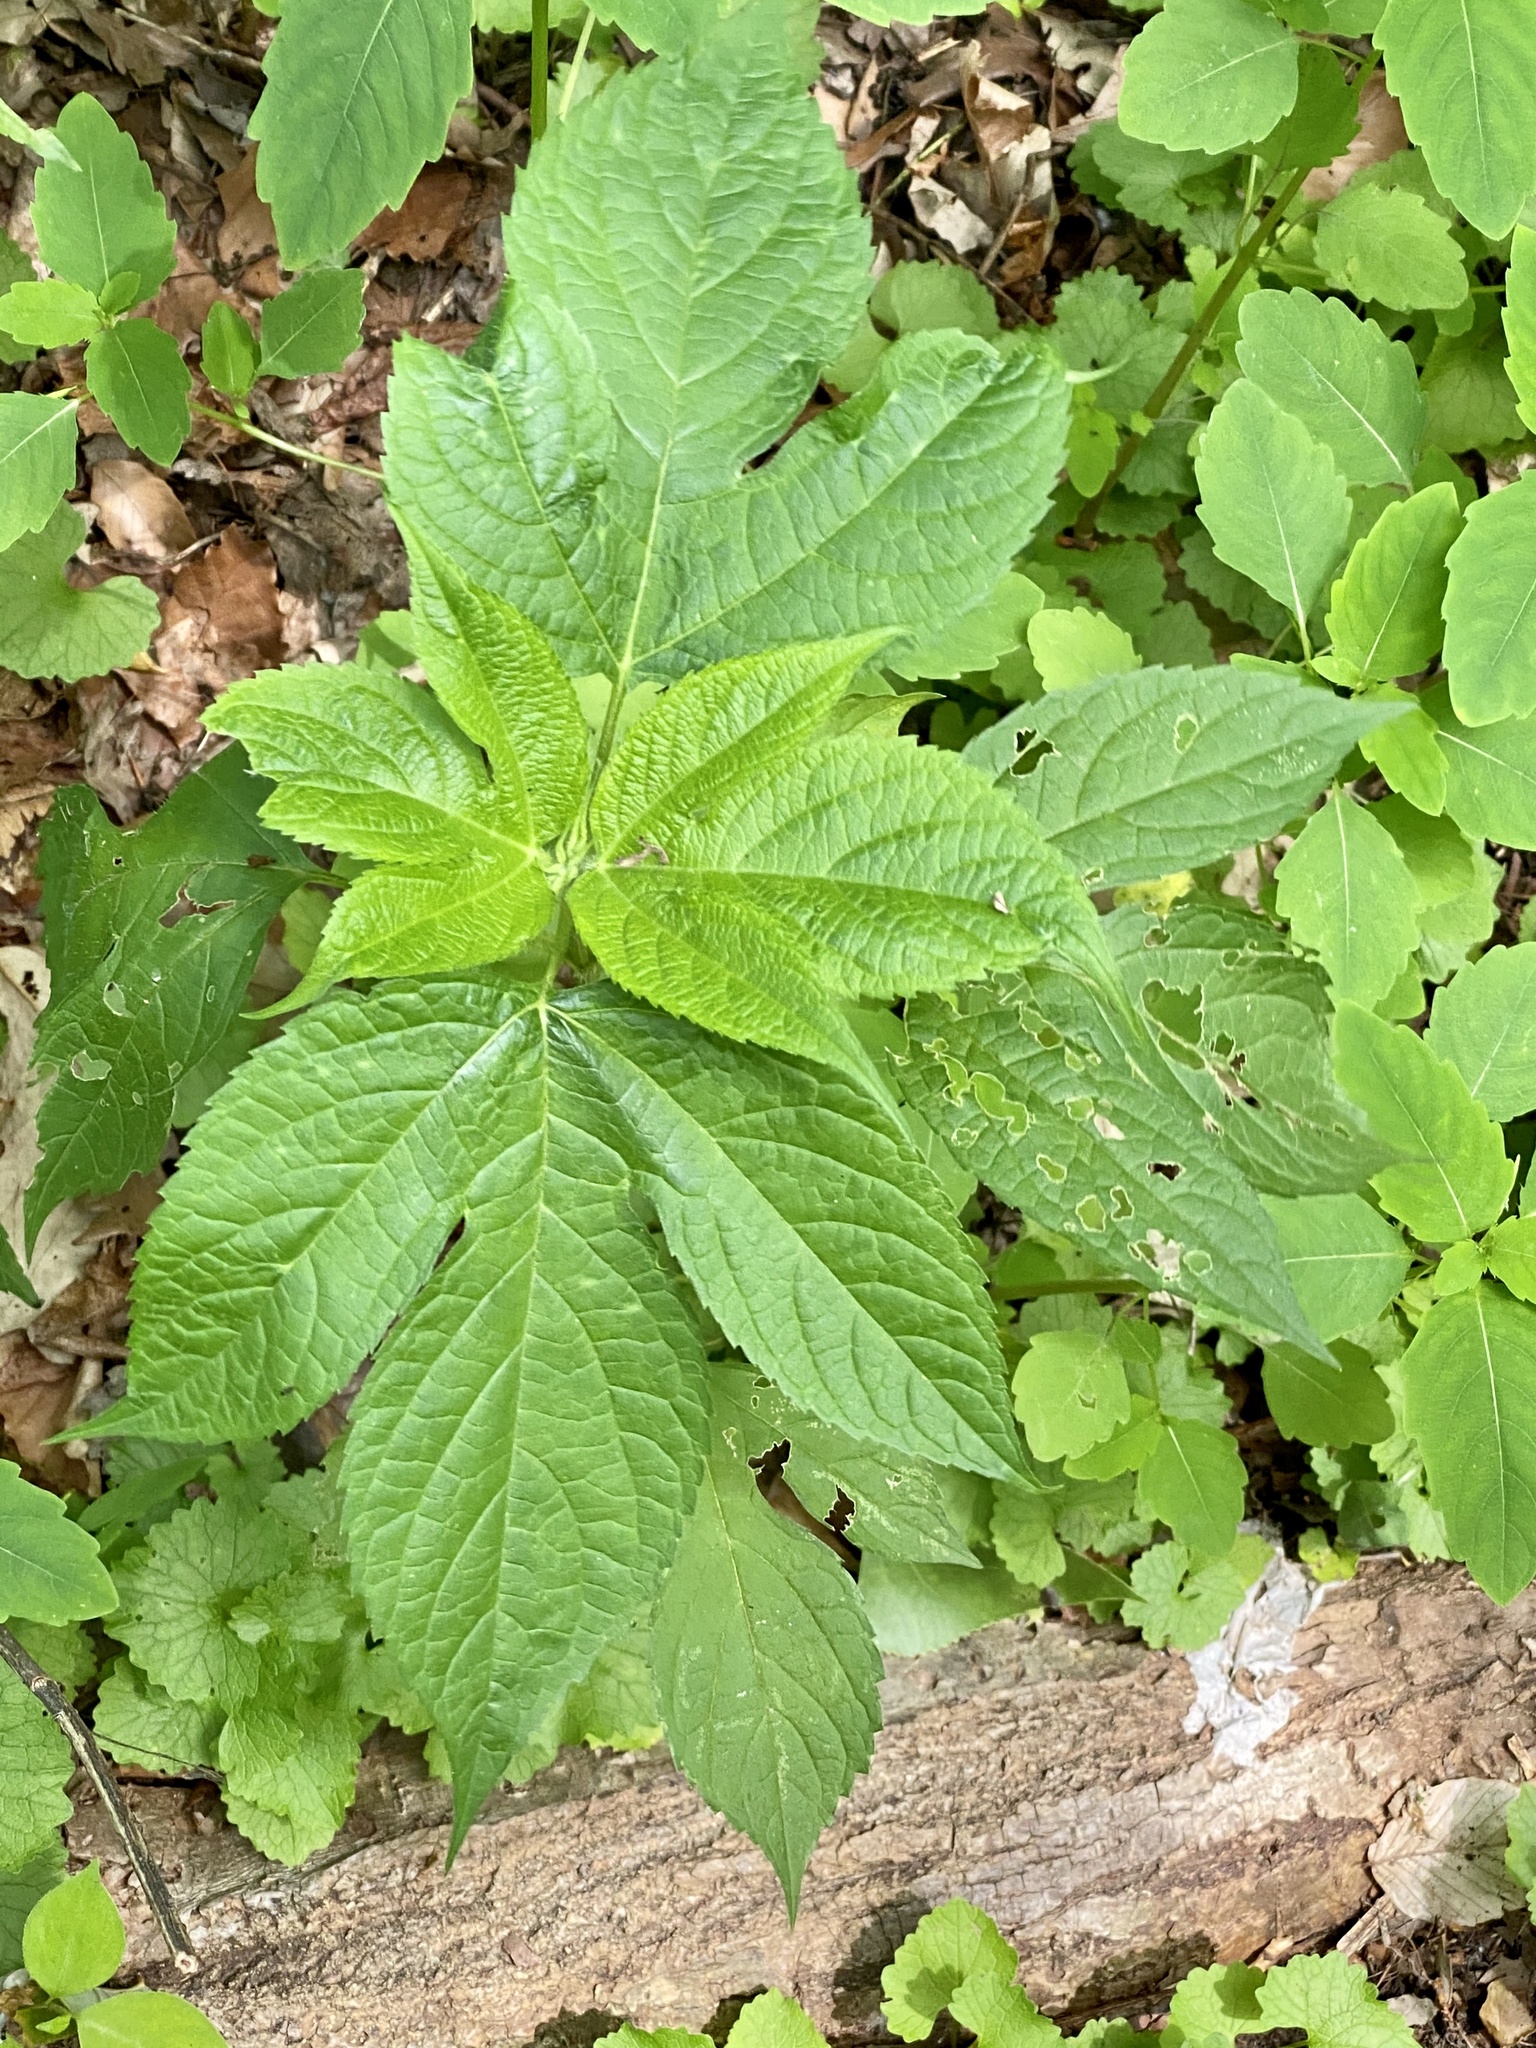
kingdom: Plantae
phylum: Tracheophyta
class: Magnoliopsida
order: Asterales
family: Asteraceae
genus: Ambrosia
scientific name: Ambrosia trifida
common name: Giant ragweed
